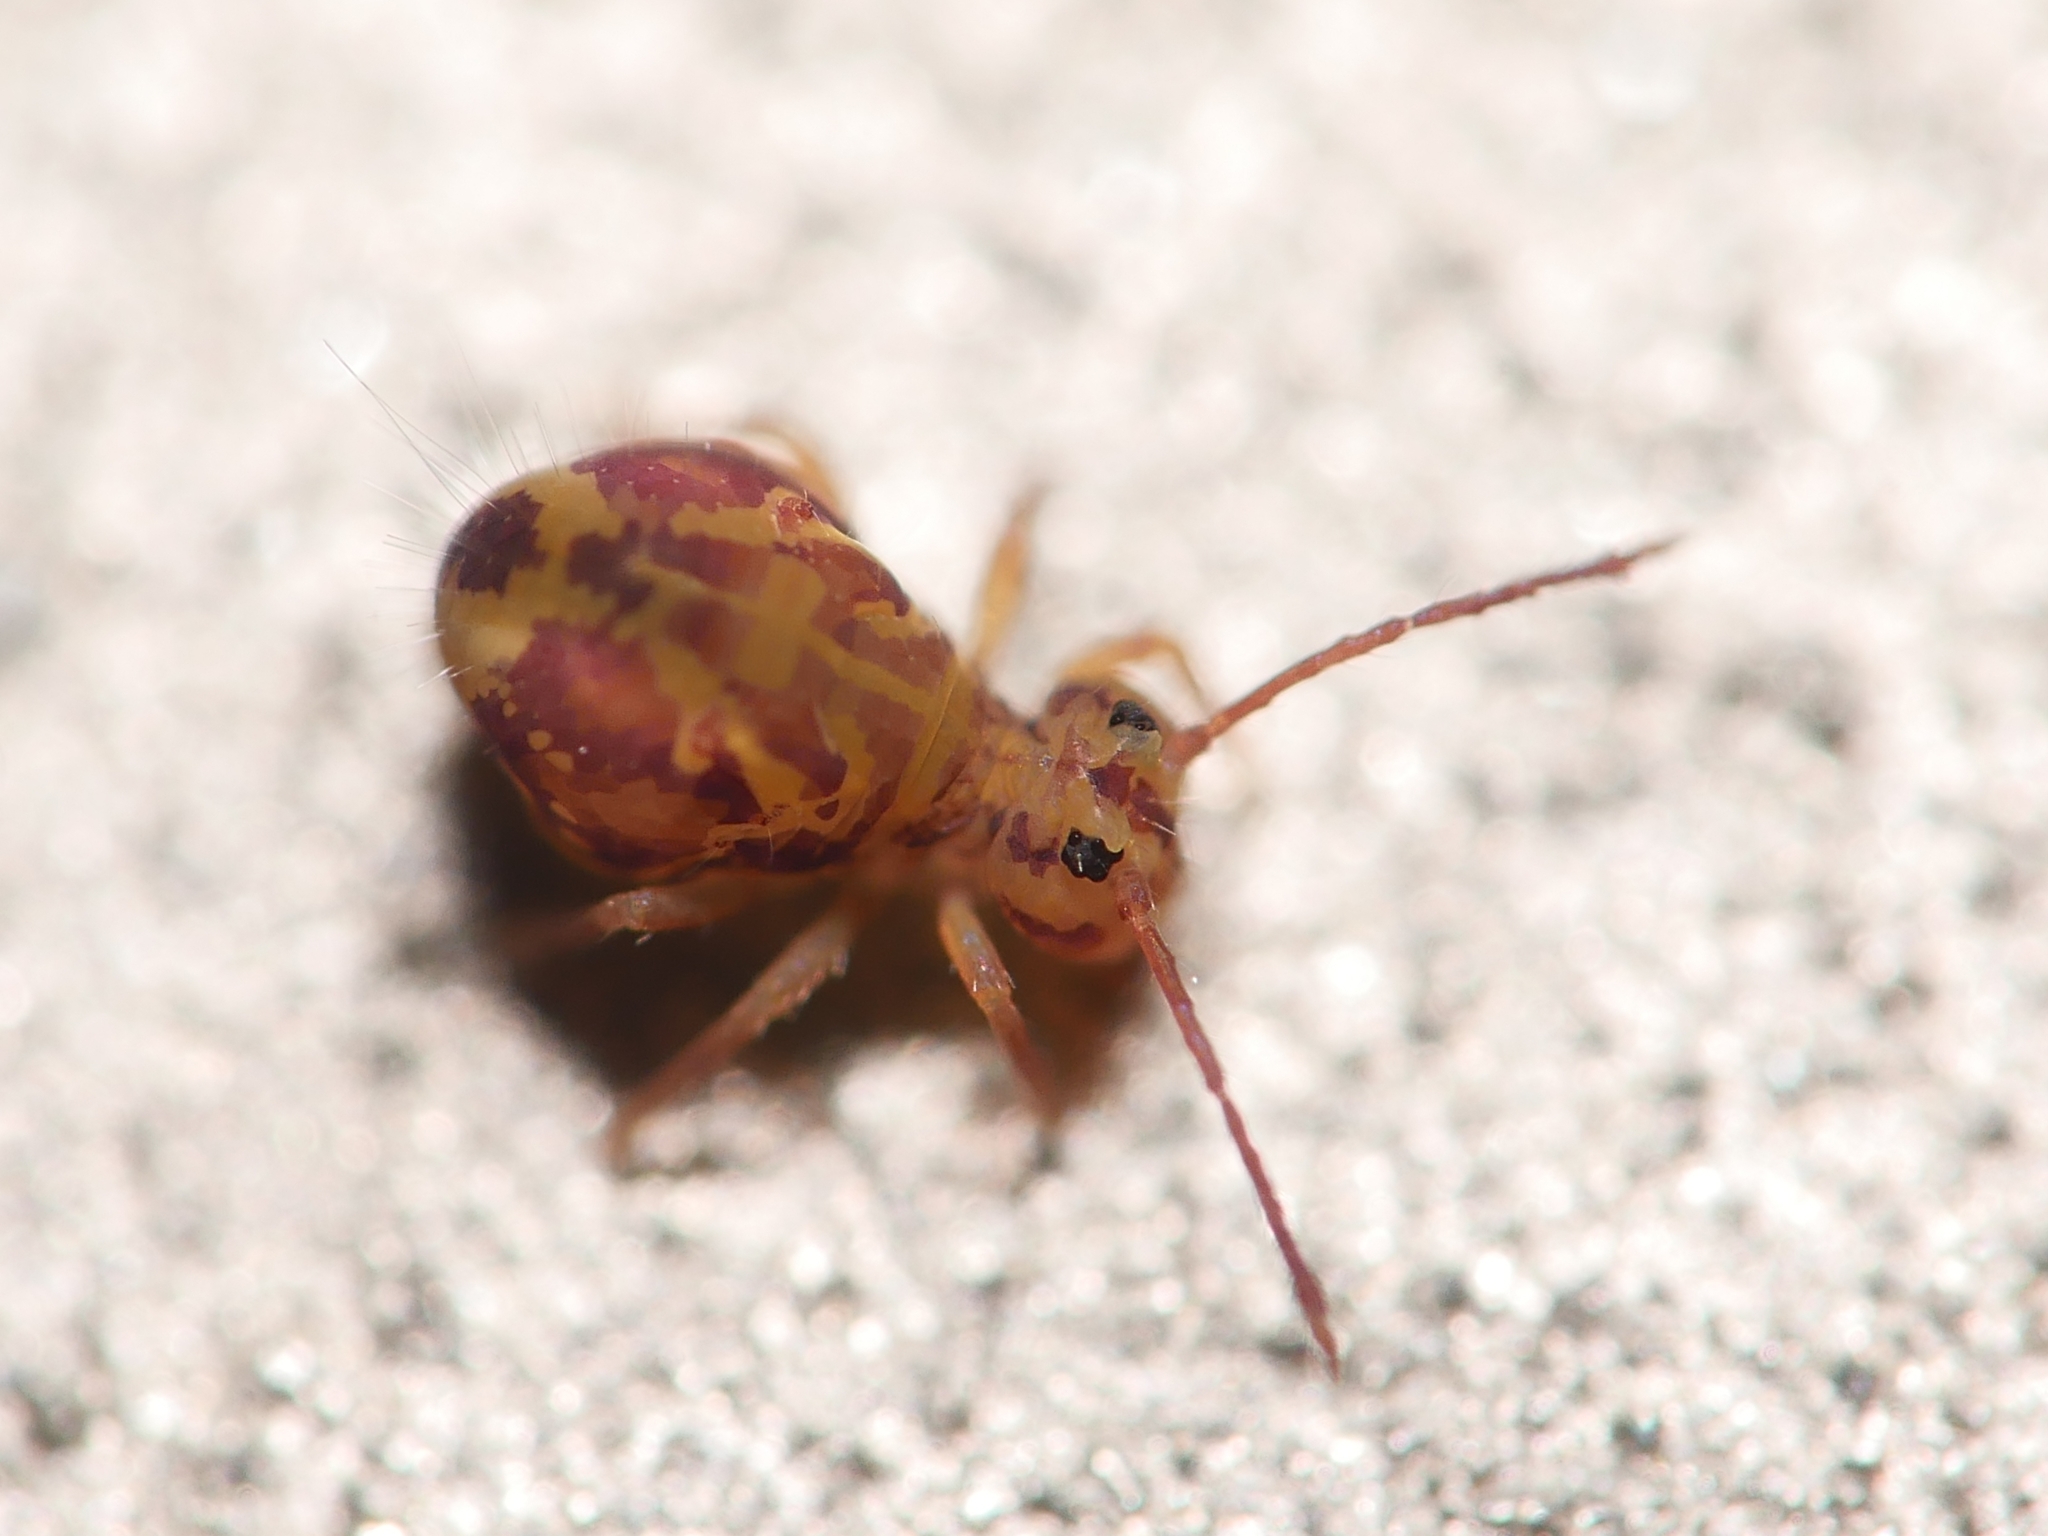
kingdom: Animalia
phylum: Arthropoda
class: Collembola
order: Symphypleona
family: Dicyrtomidae
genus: Dicyrtomina
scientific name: Dicyrtomina ornata
